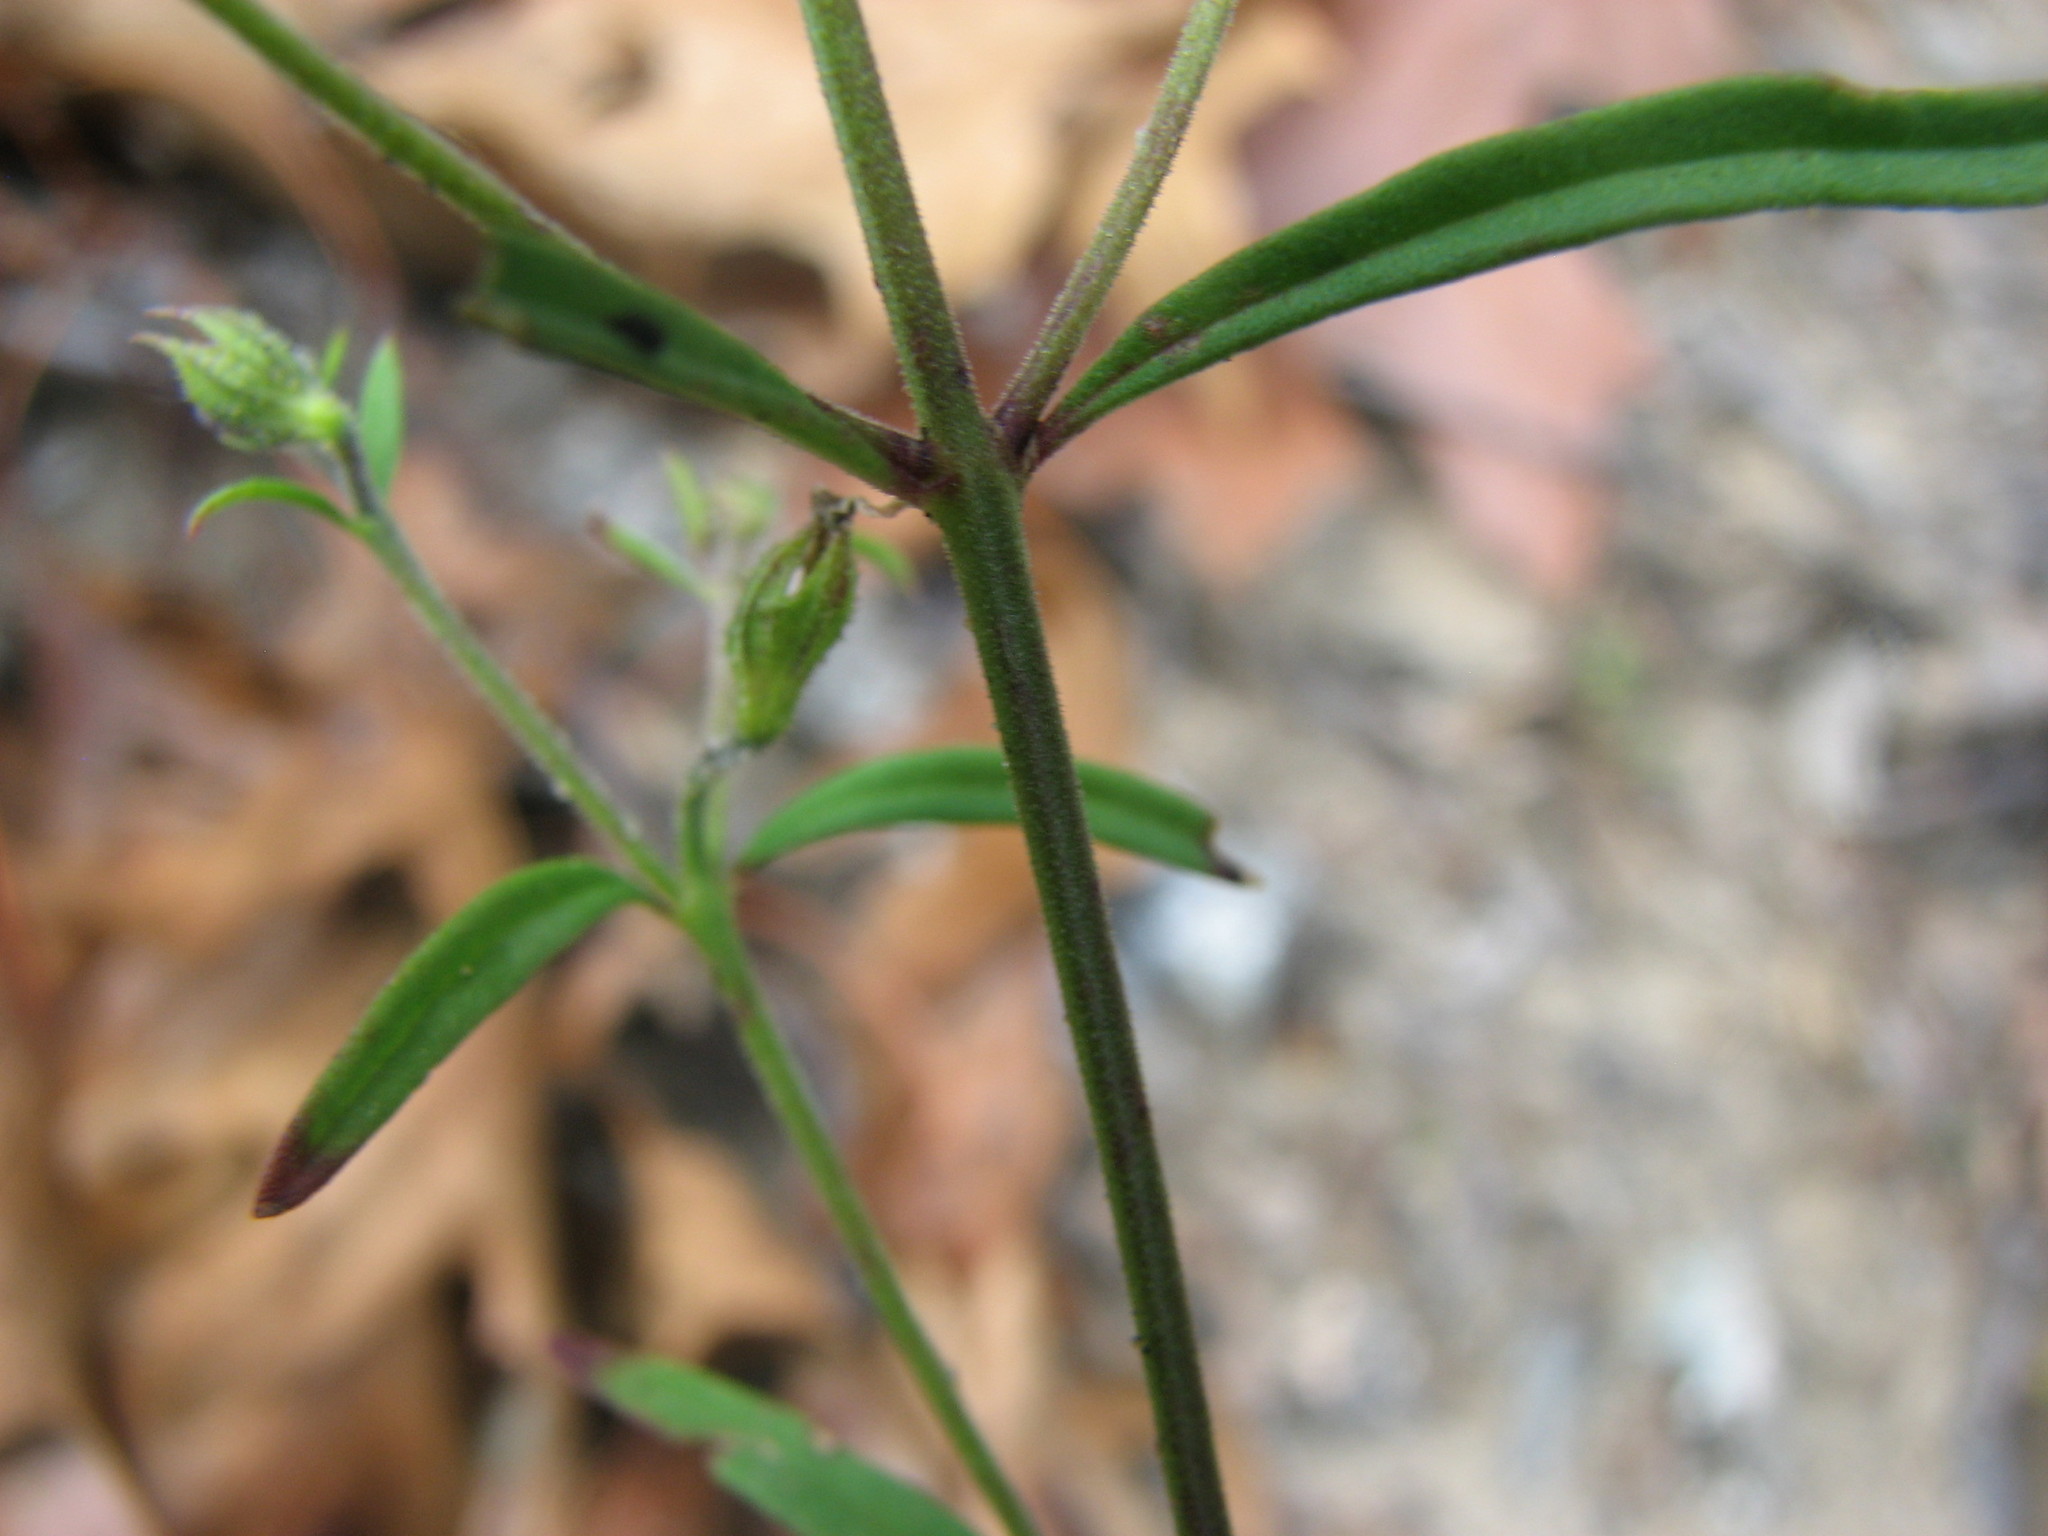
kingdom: Plantae
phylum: Tracheophyta
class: Magnoliopsida
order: Lamiales
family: Lamiaceae
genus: Trichostema
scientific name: Trichostema setaceum
